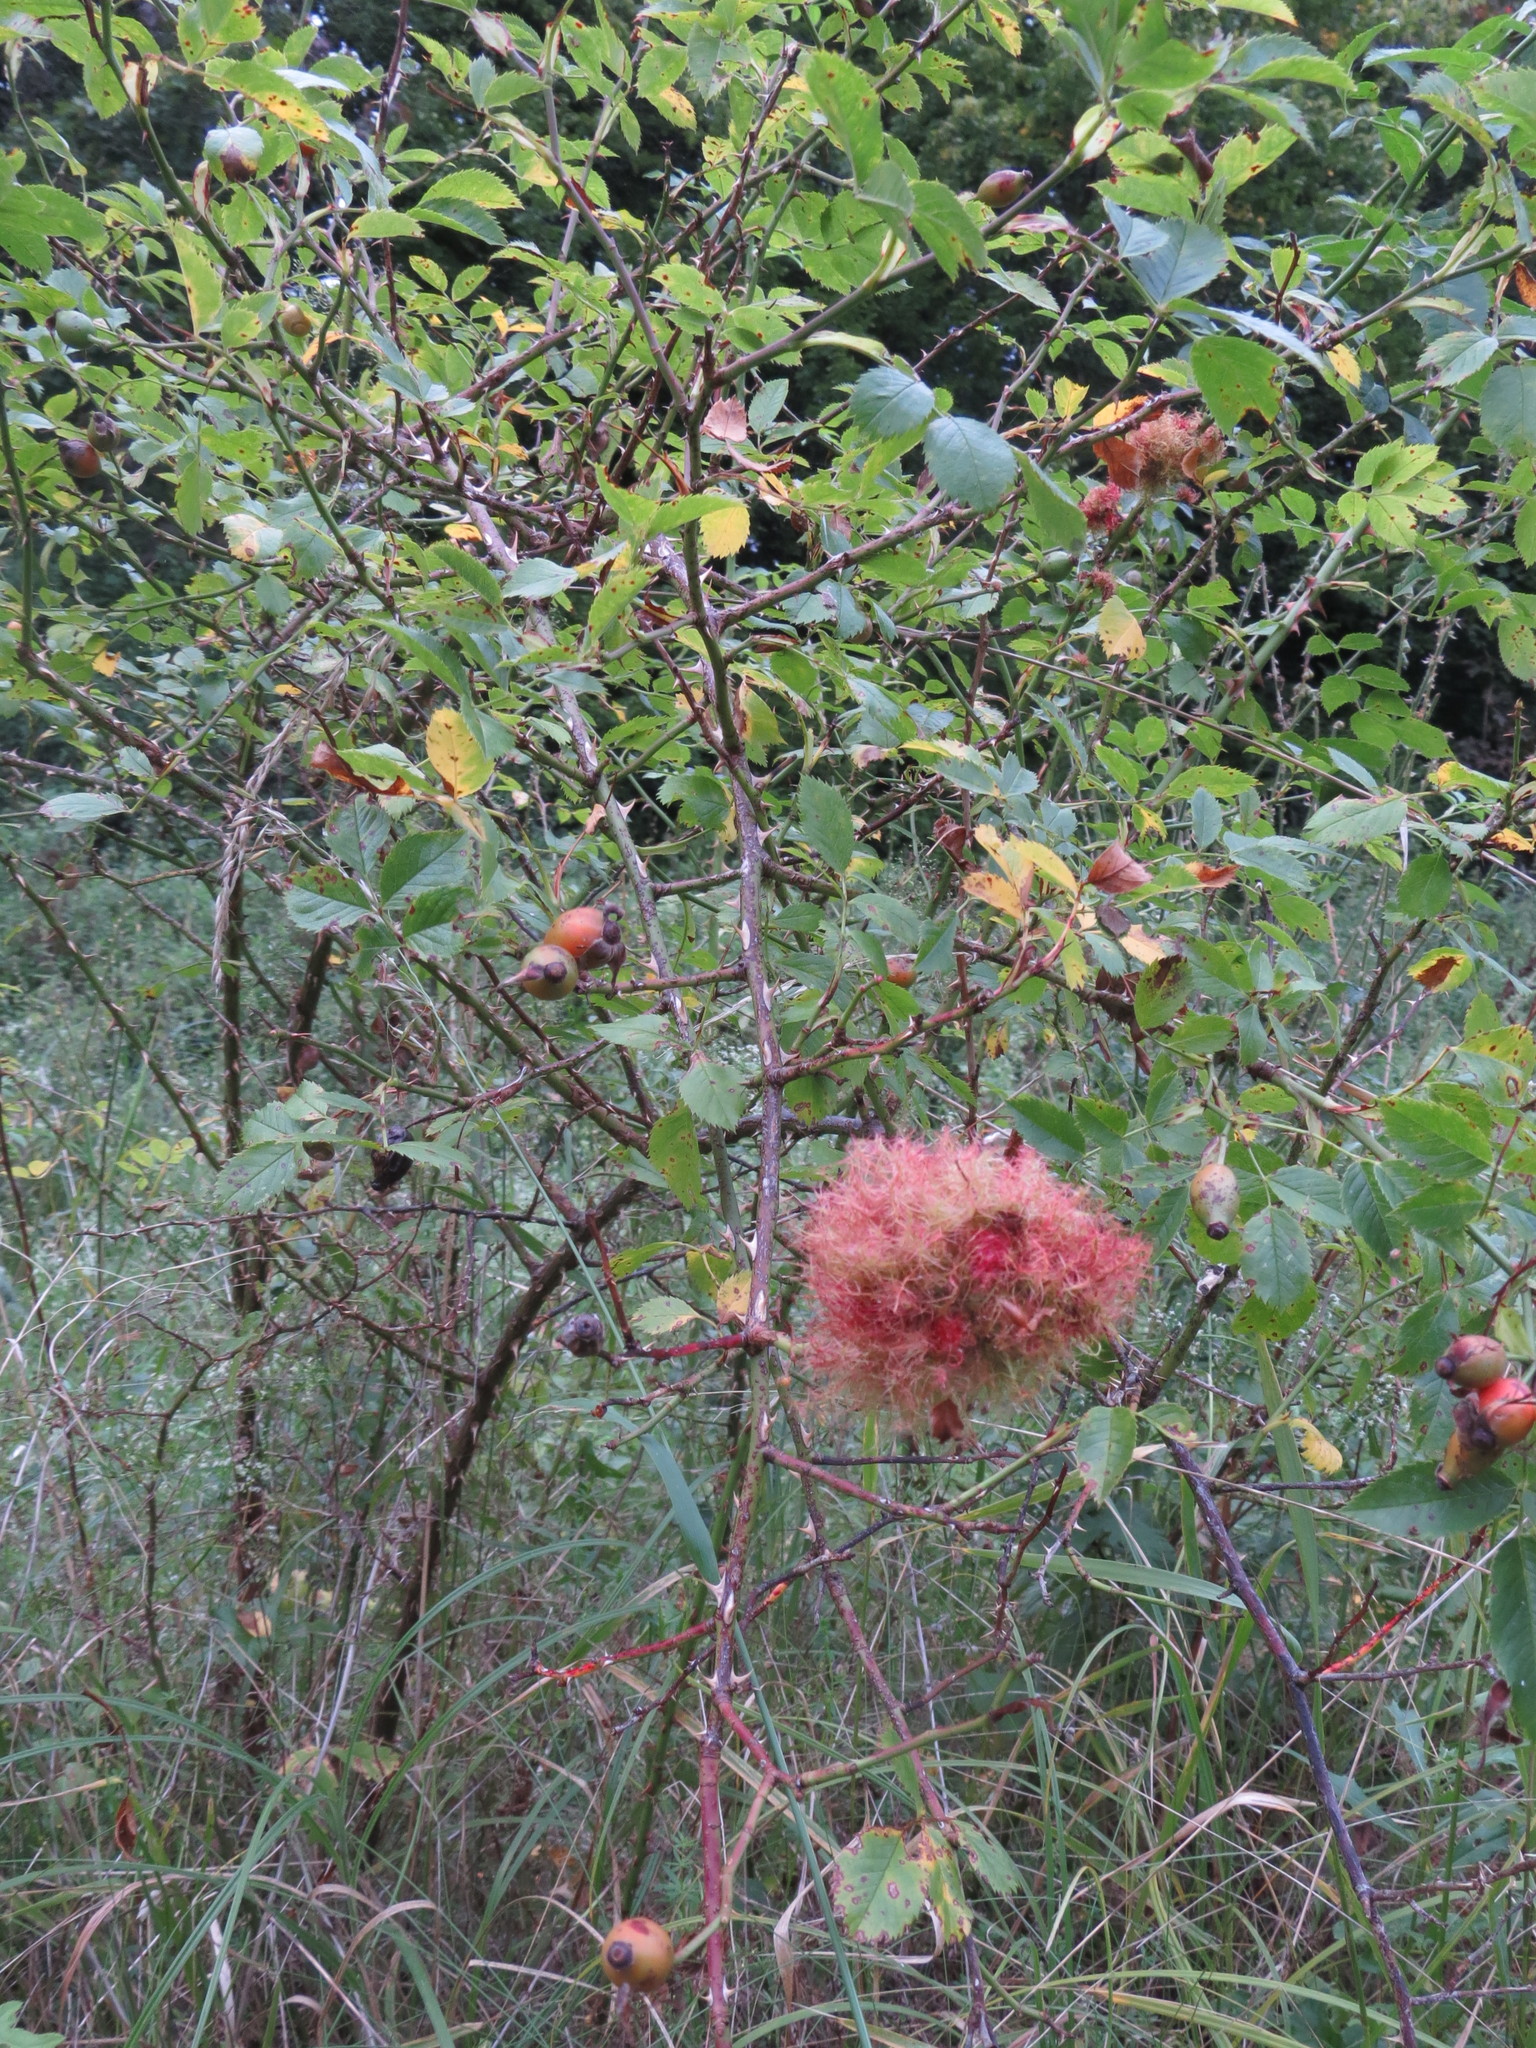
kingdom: Animalia
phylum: Arthropoda
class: Insecta
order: Hymenoptera
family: Cynipidae
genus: Diplolepis
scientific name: Diplolepis rosae
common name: Bedeguar gall
